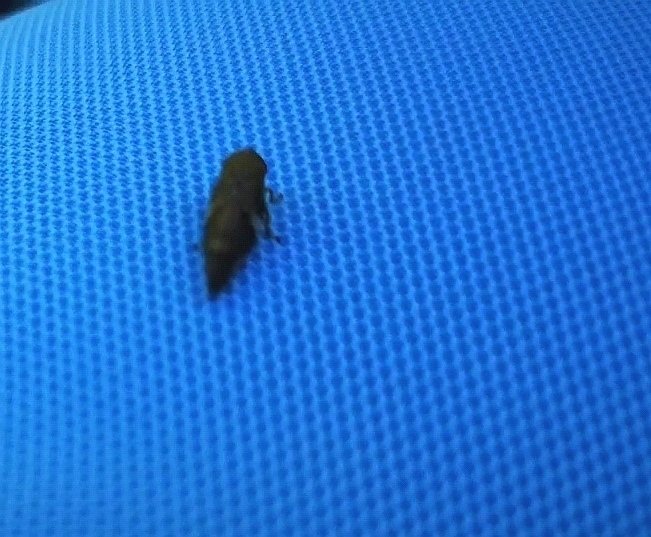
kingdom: Animalia
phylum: Arthropoda
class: Insecta
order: Hemiptera
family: Aphrophoridae
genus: Aphrophora
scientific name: Aphrophora alni
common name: European alder spittlebug
